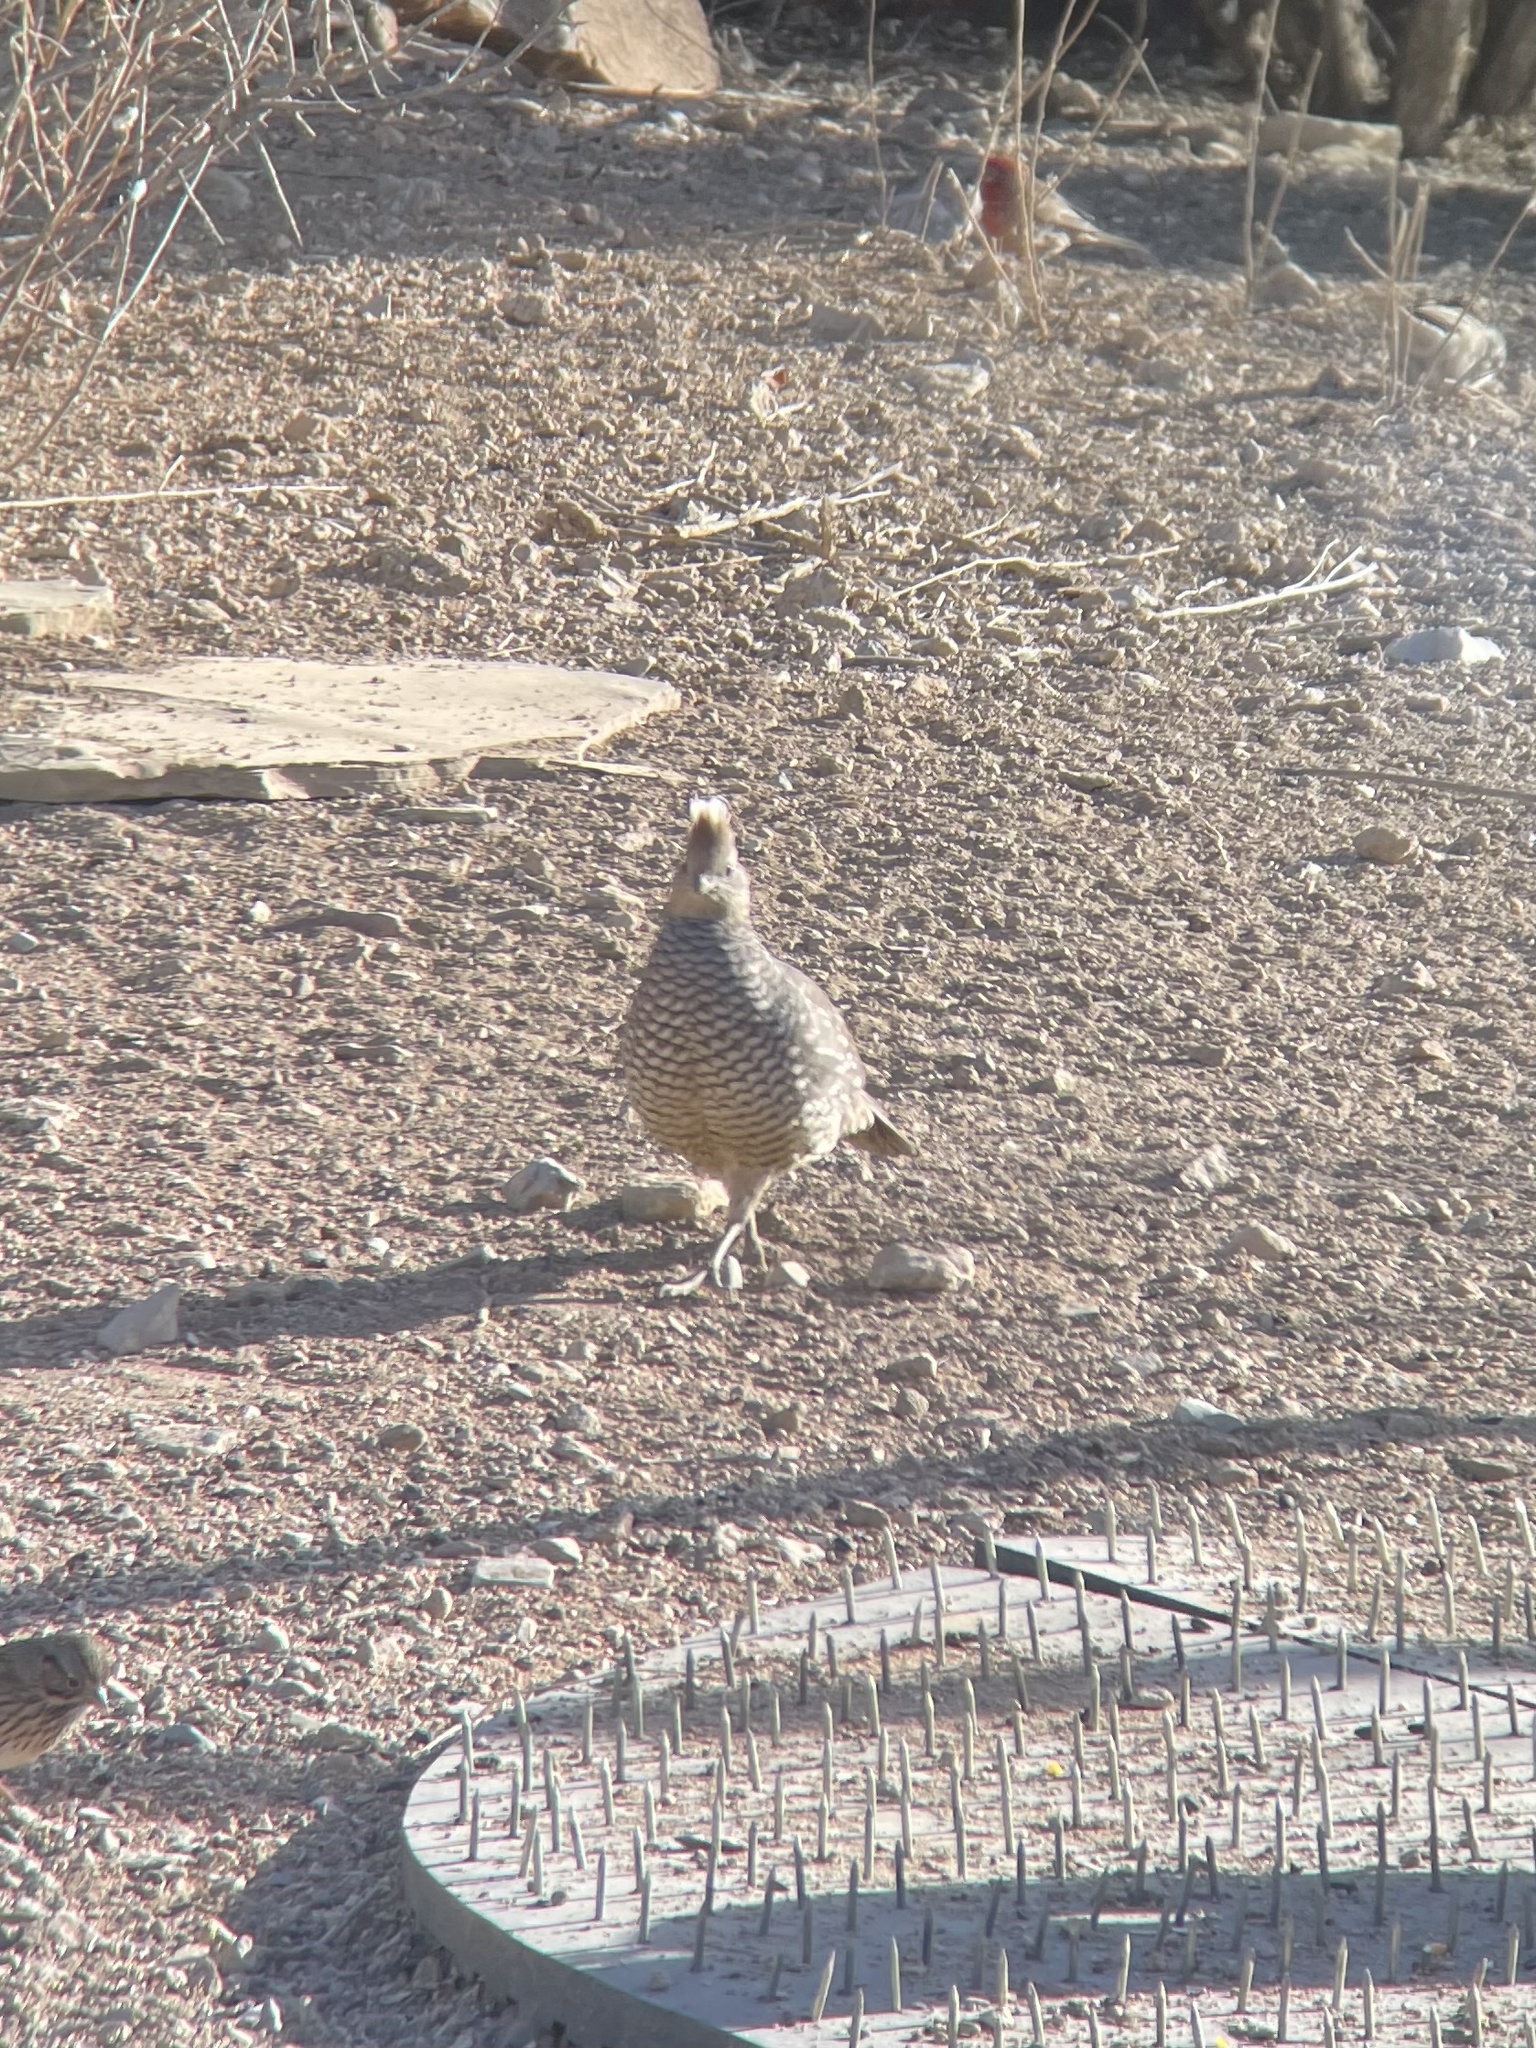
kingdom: Animalia
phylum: Chordata
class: Aves
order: Galliformes
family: Odontophoridae
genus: Callipepla
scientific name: Callipepla squamata
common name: Scaled quail
